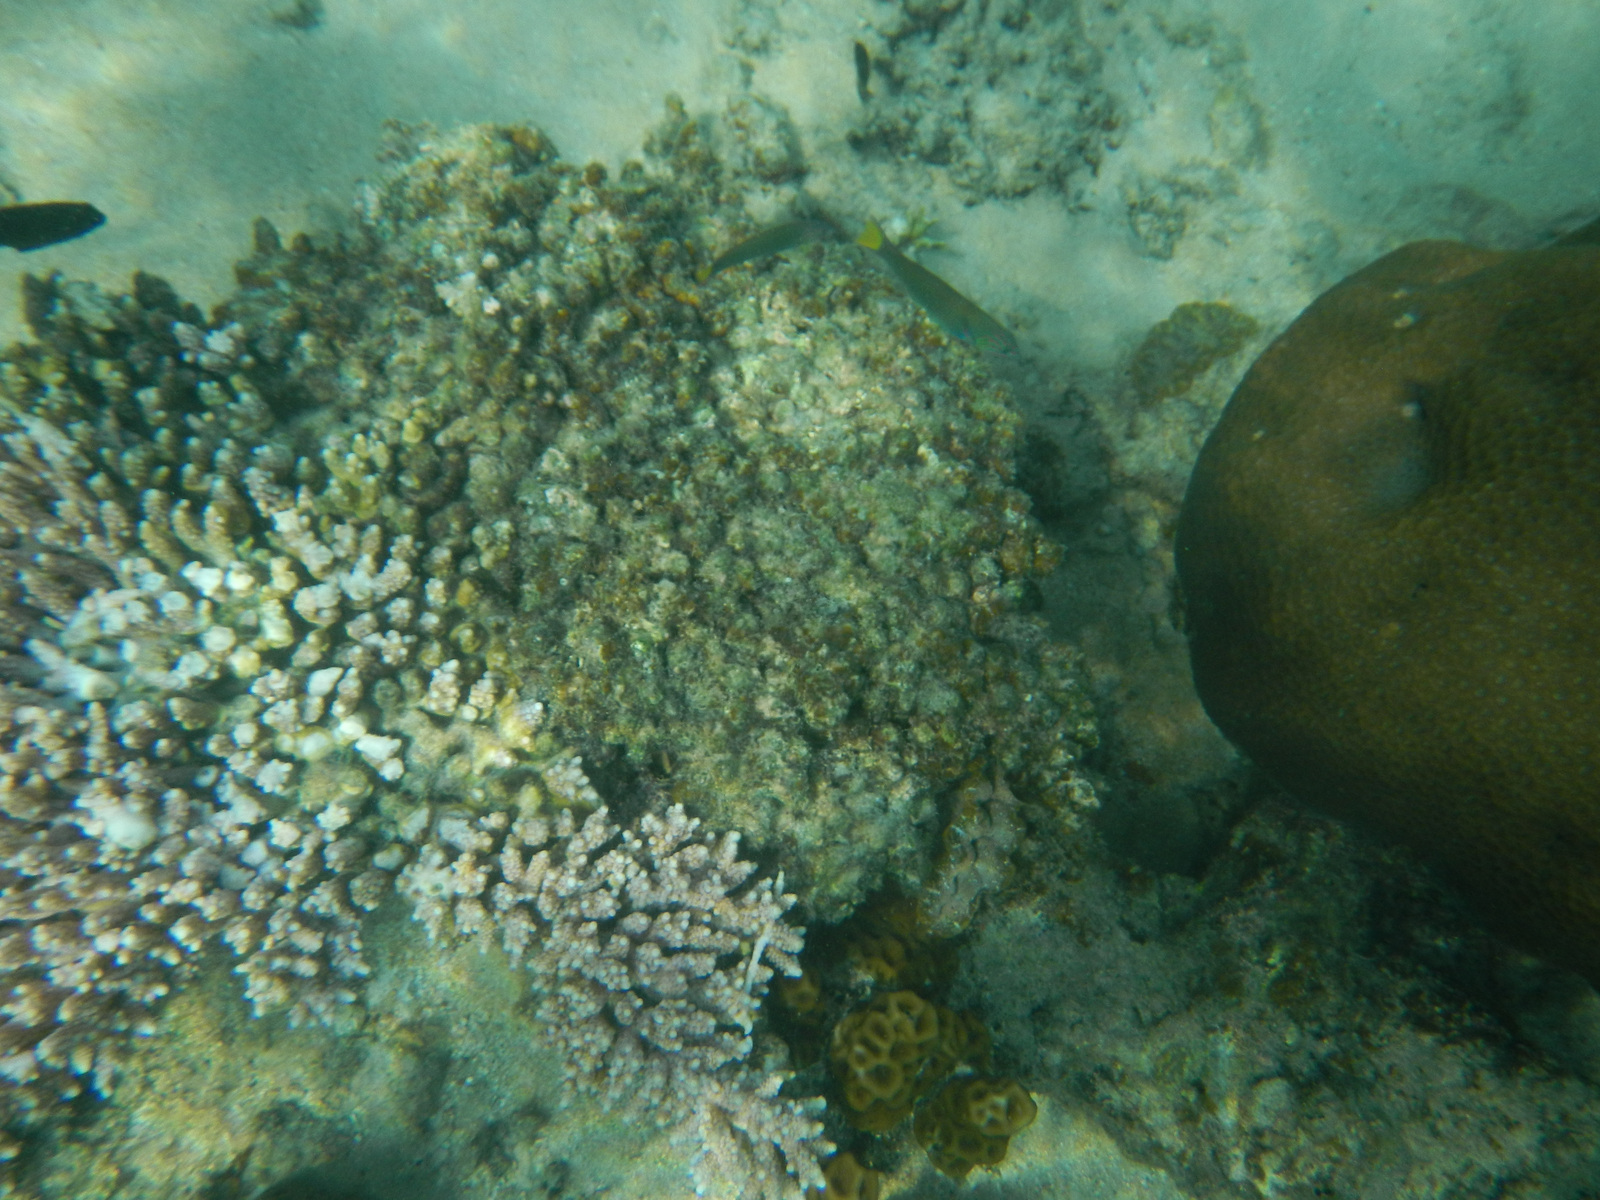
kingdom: Animalia
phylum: Chordata
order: Perciformes
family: Labridae
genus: Thalassoma
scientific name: Thalassoma lunare
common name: Blue wrasse
